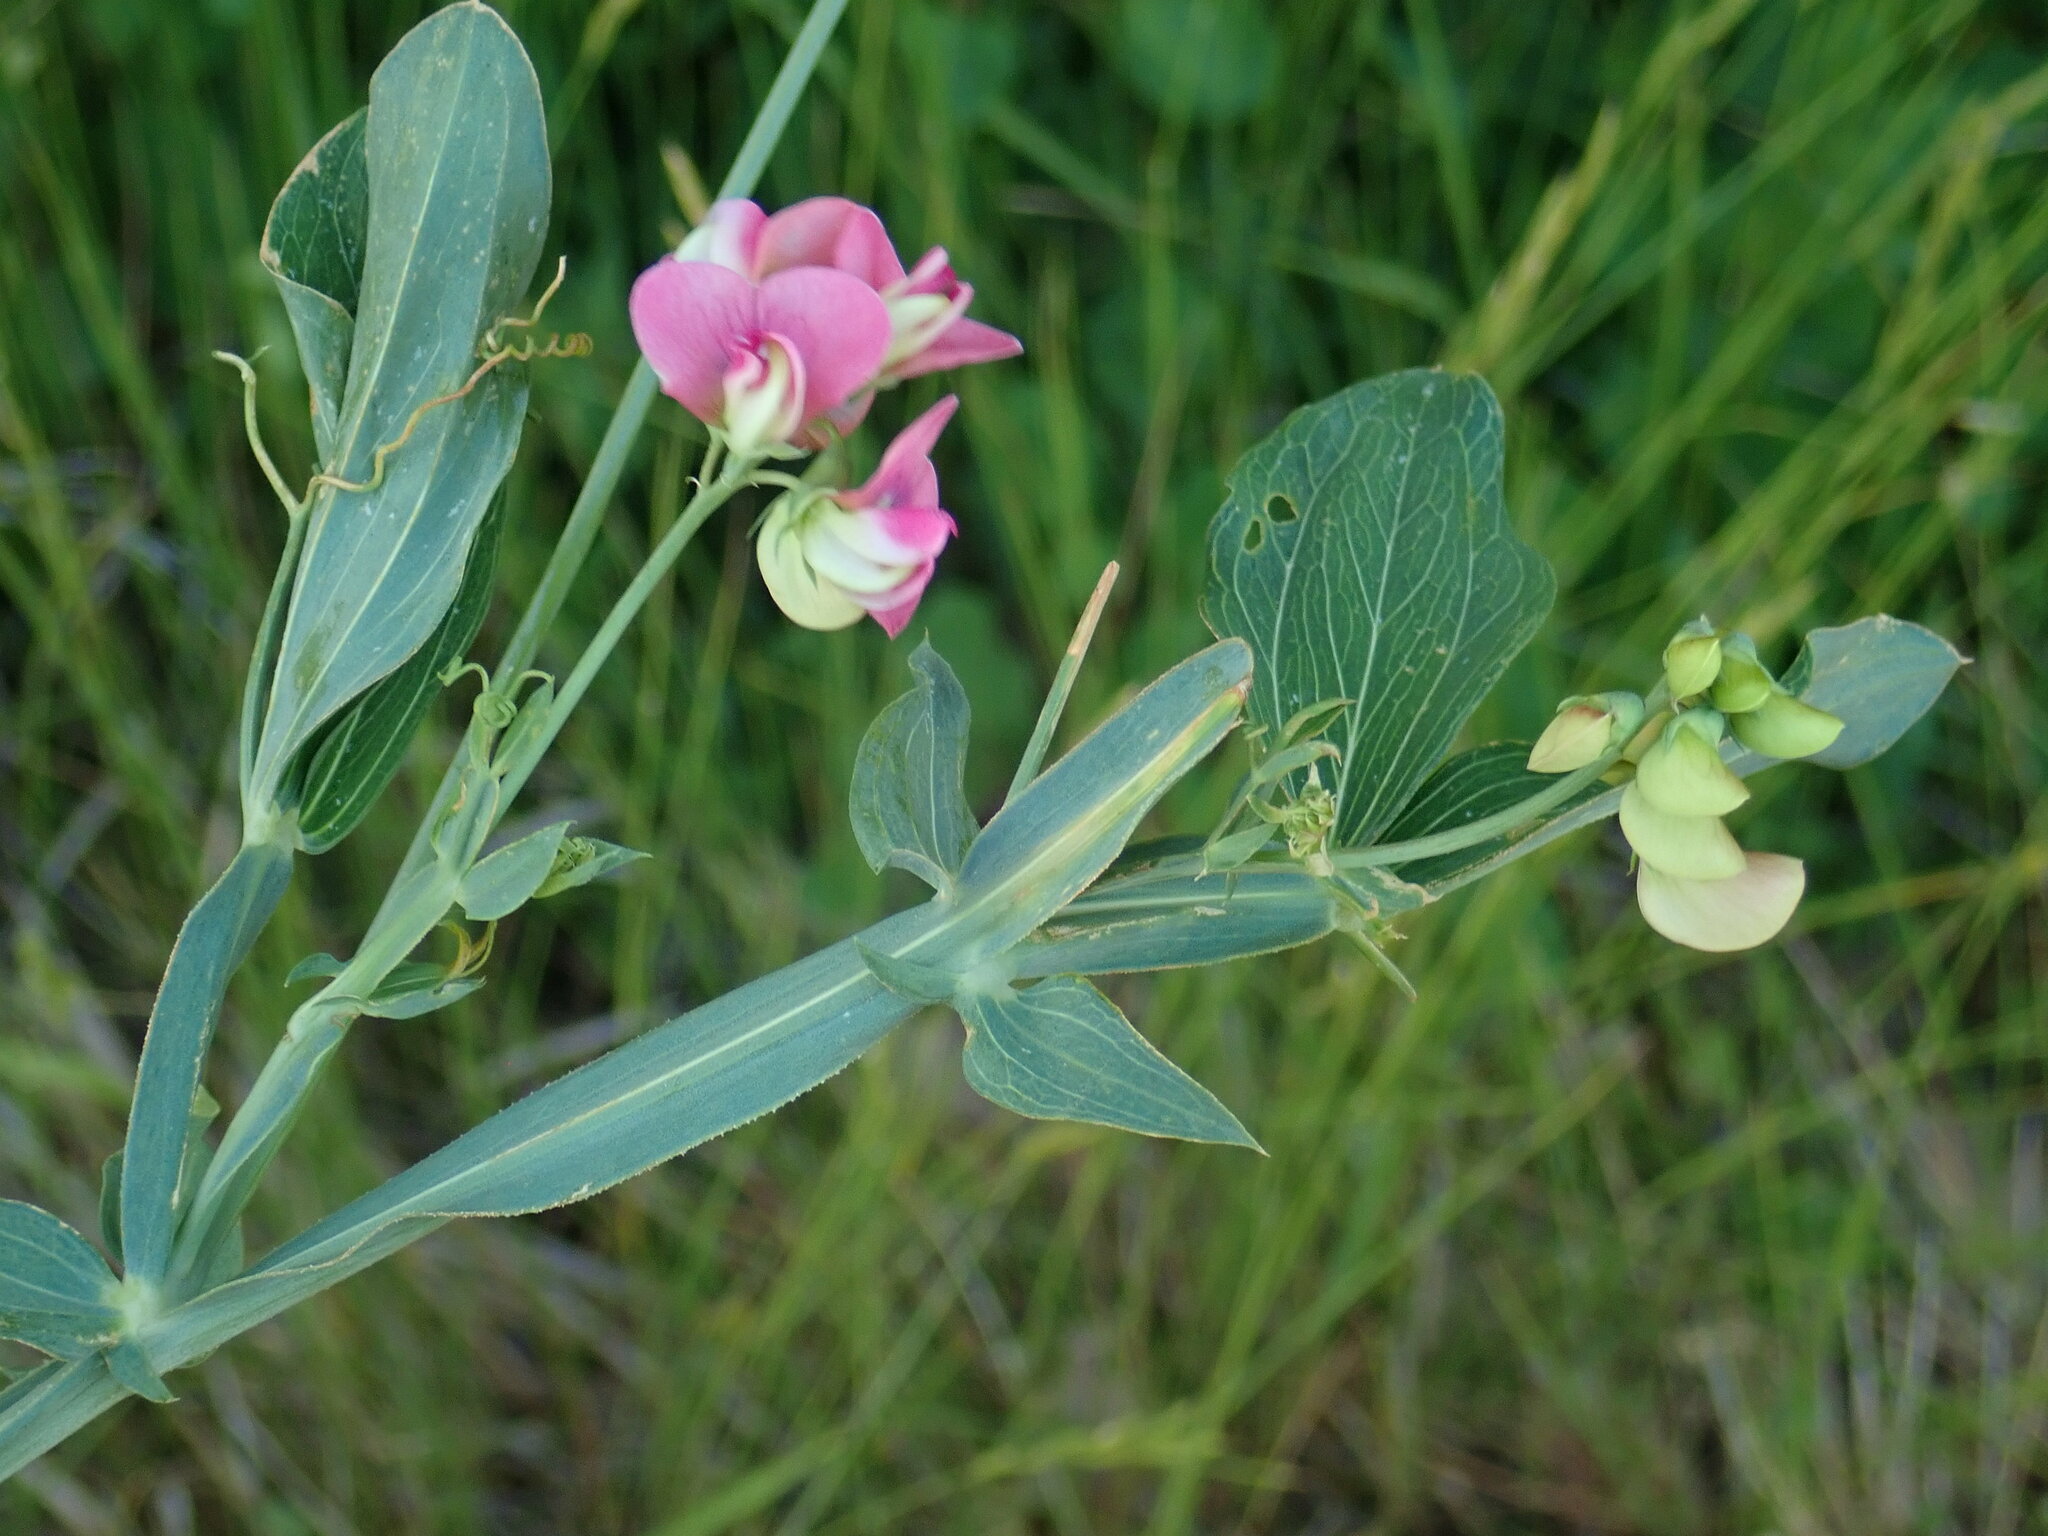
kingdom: Plantae
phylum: Tracheophyta
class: Magnoliopsida
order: Fabales
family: Fabaceae
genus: Lathyrus
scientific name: Lathyrus latifolius
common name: Perennial pea
